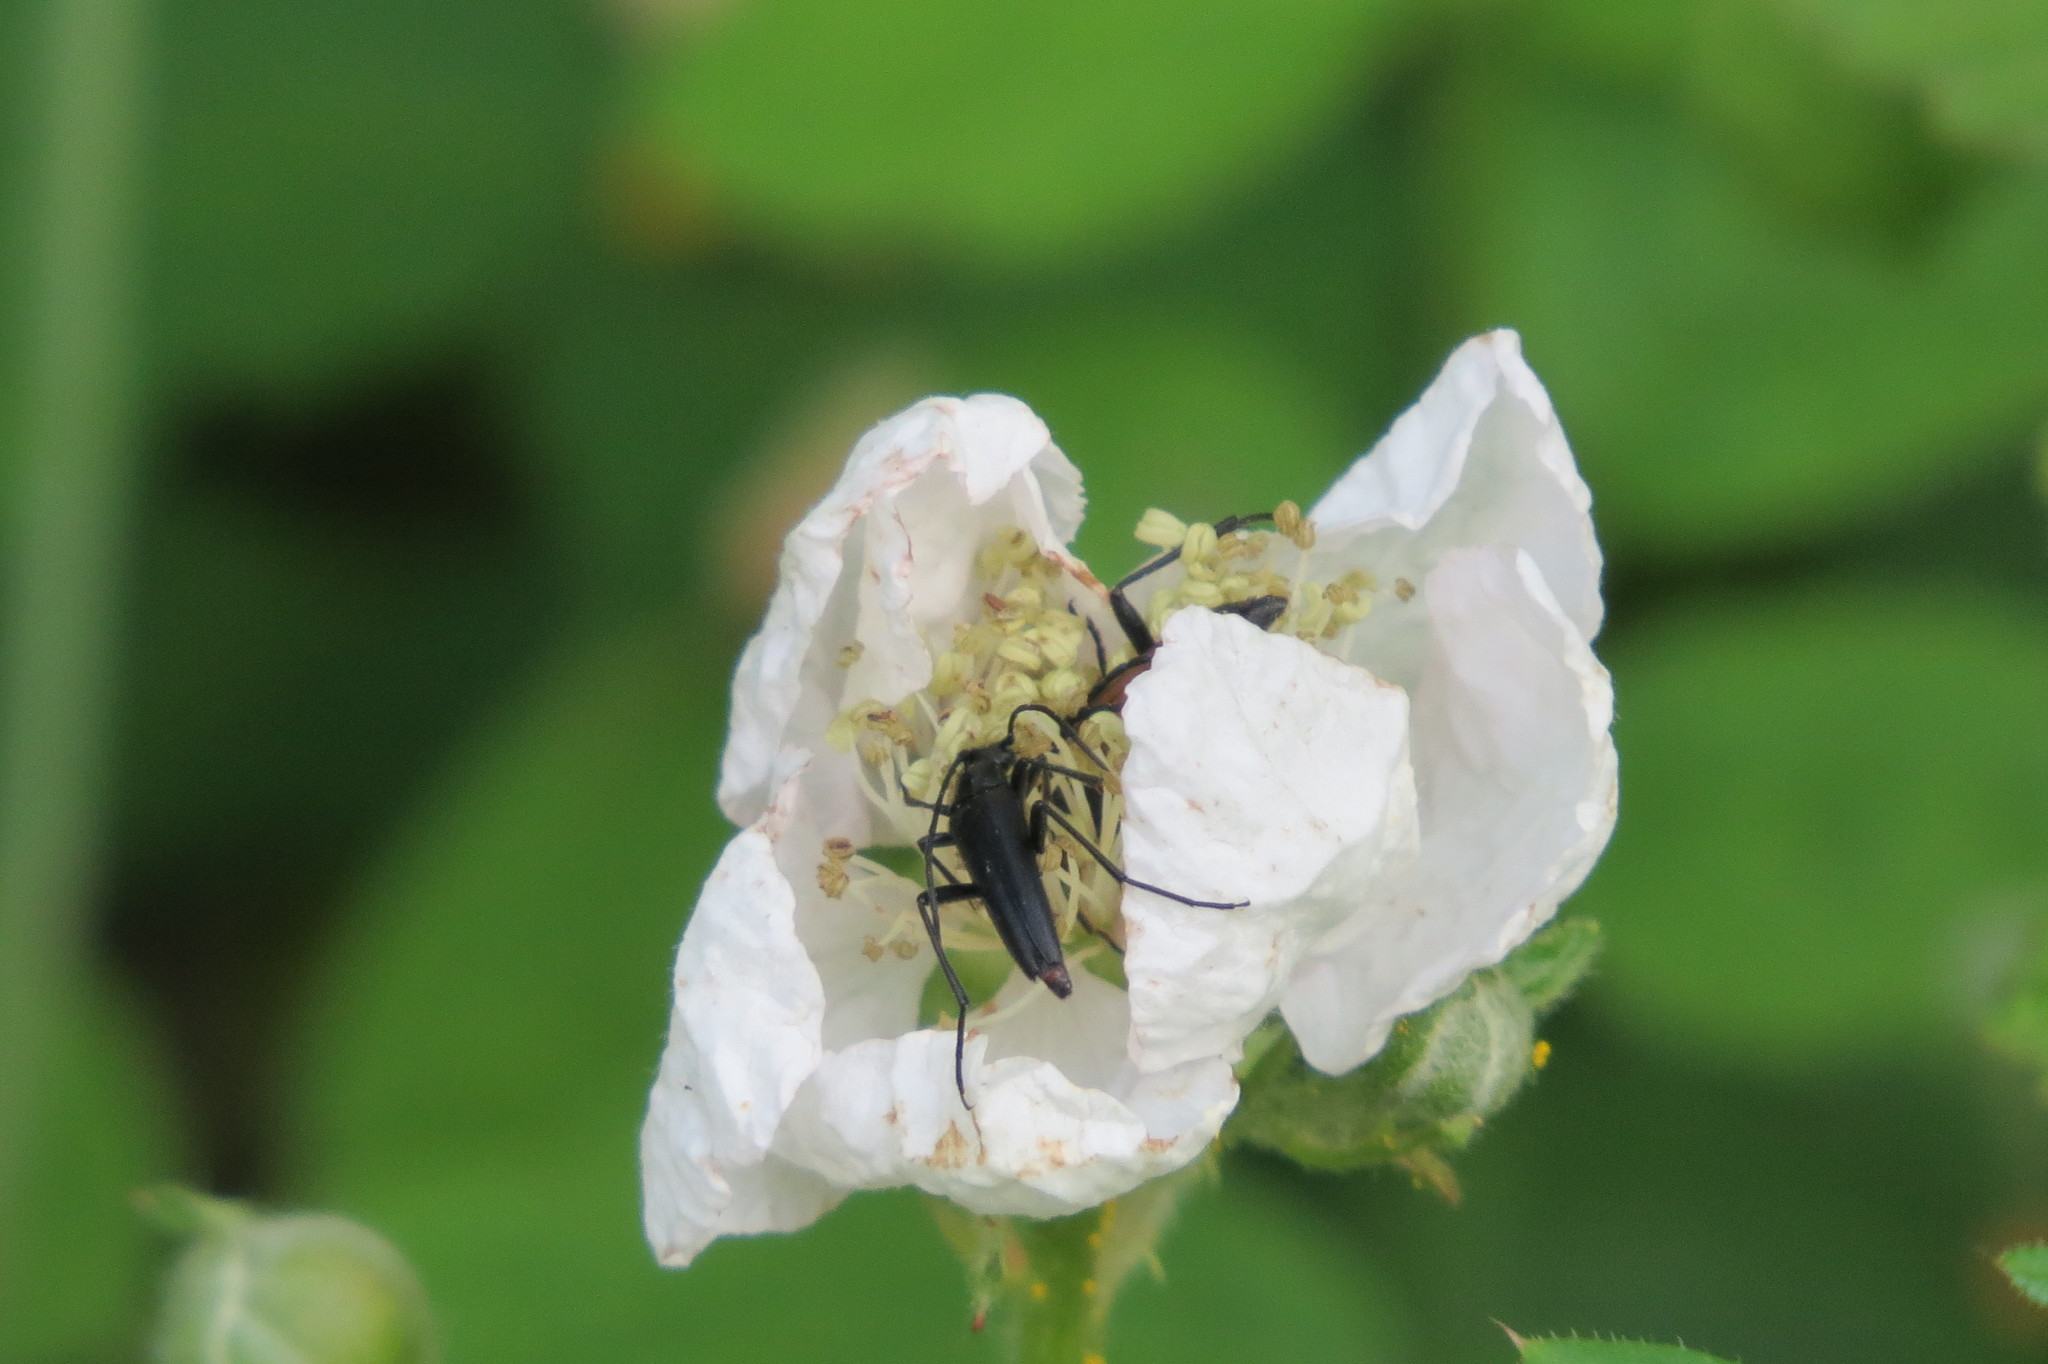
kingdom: Animalia
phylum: Arthropoda
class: Insecta
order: Coleoptera
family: Cerambycidae
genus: Stenurella
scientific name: Stenurella nigra
